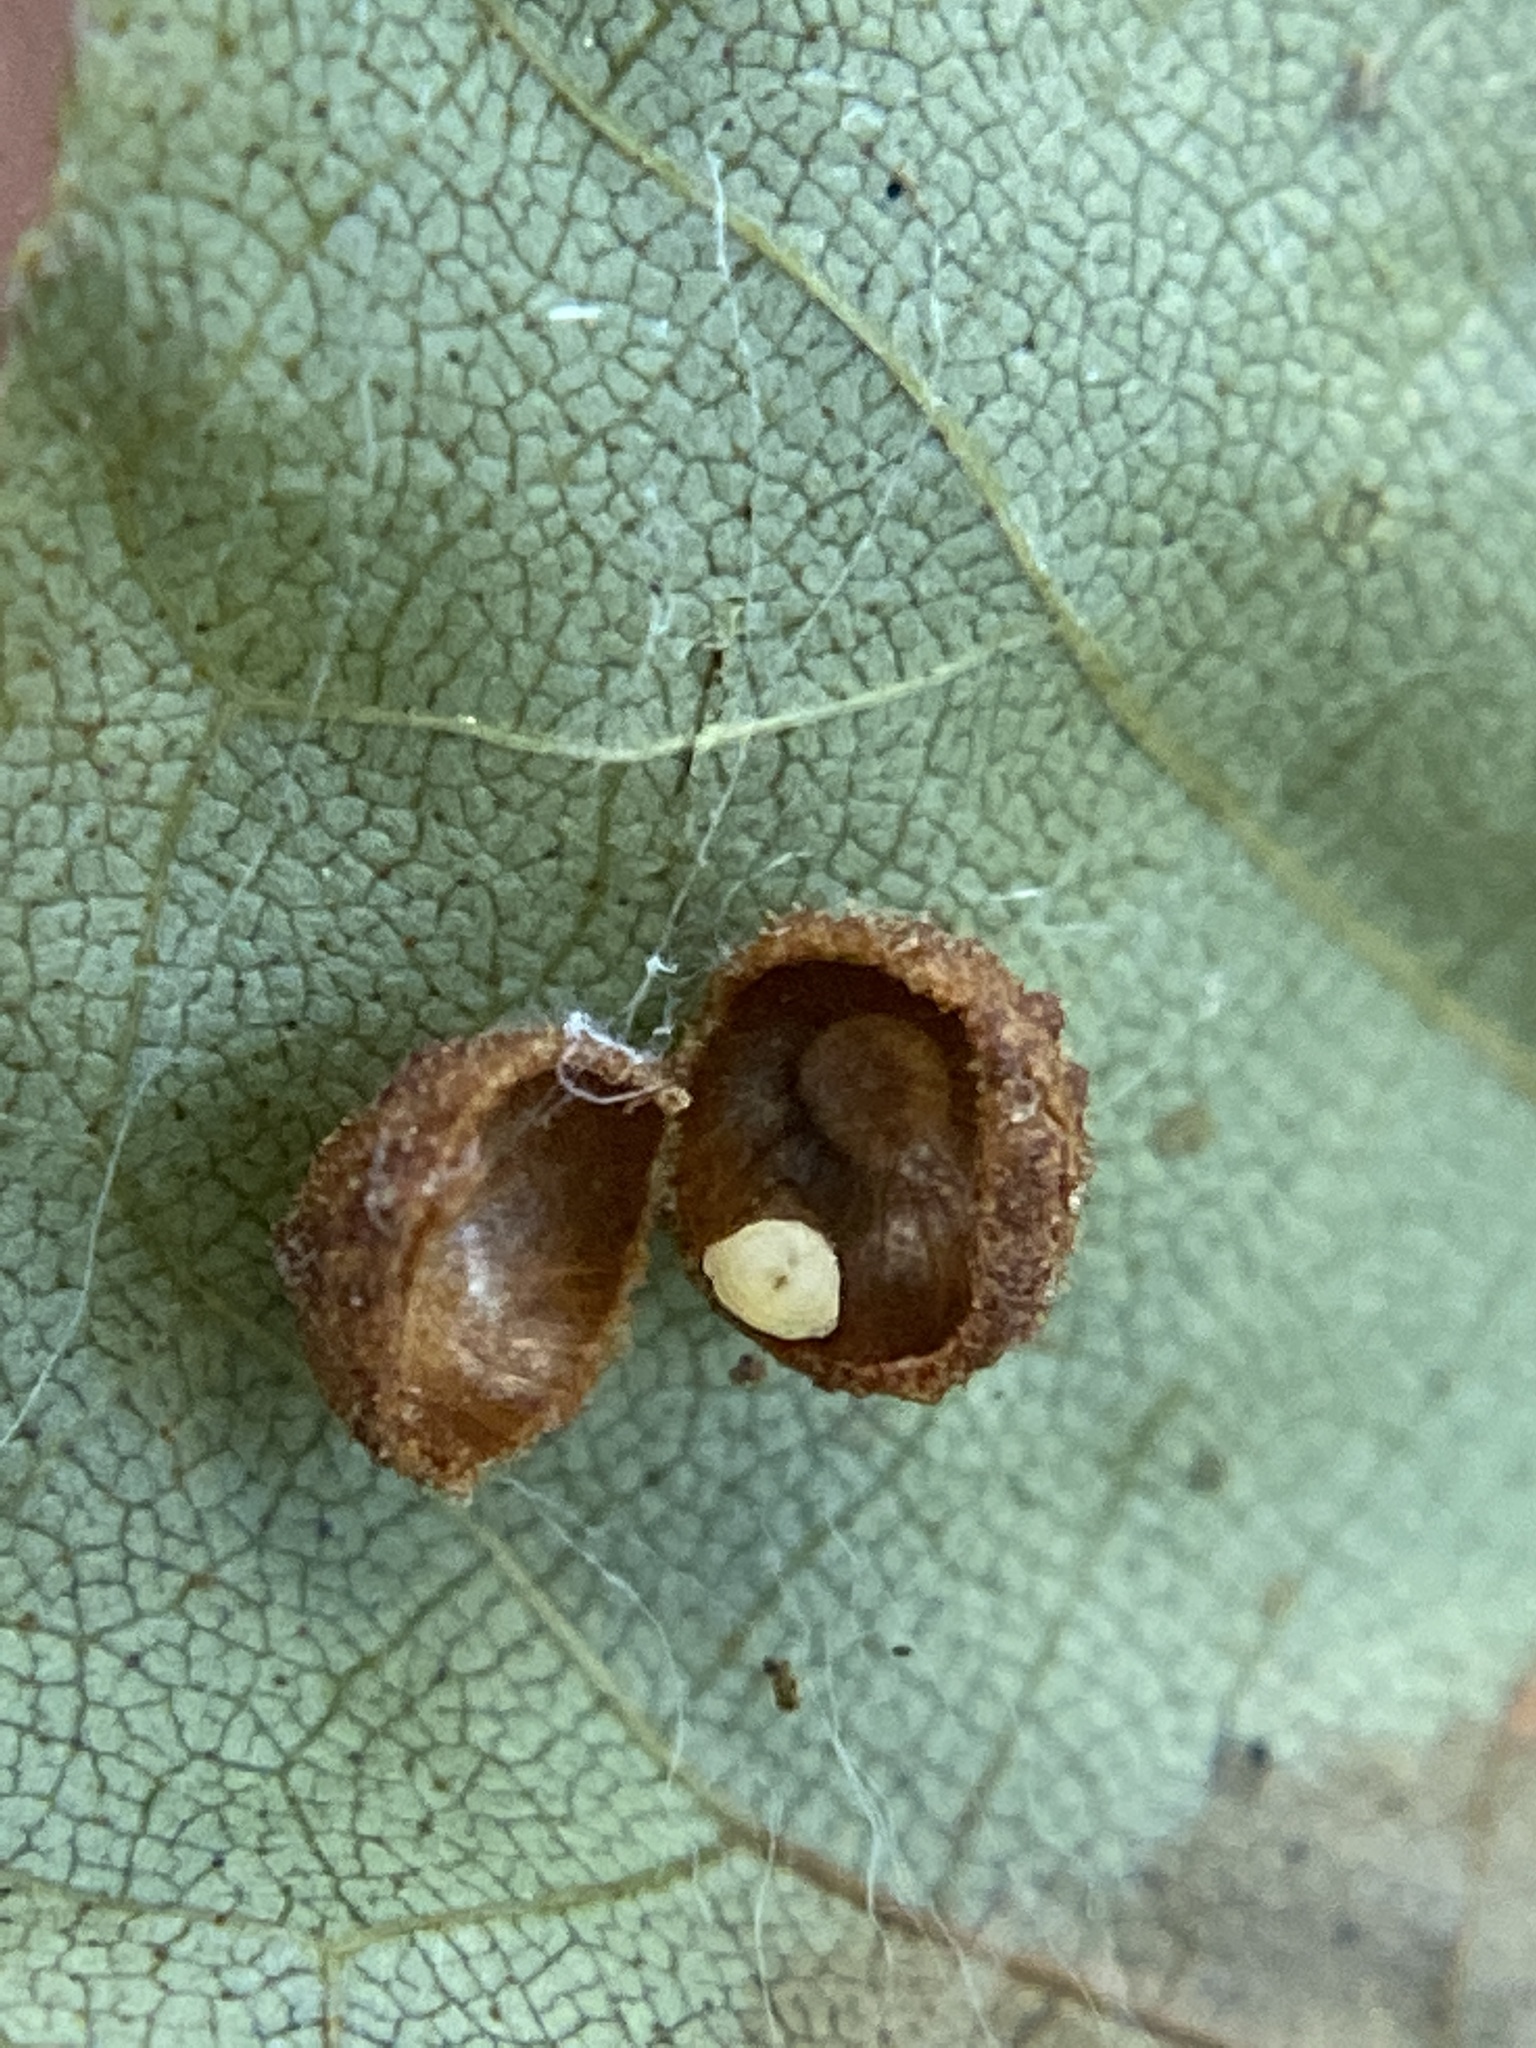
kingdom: Animalia
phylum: Arthropoda
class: Insecta
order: Diptera
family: Cecidomyiidae
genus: Caryomyia
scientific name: Caryomyia tuberidolium
